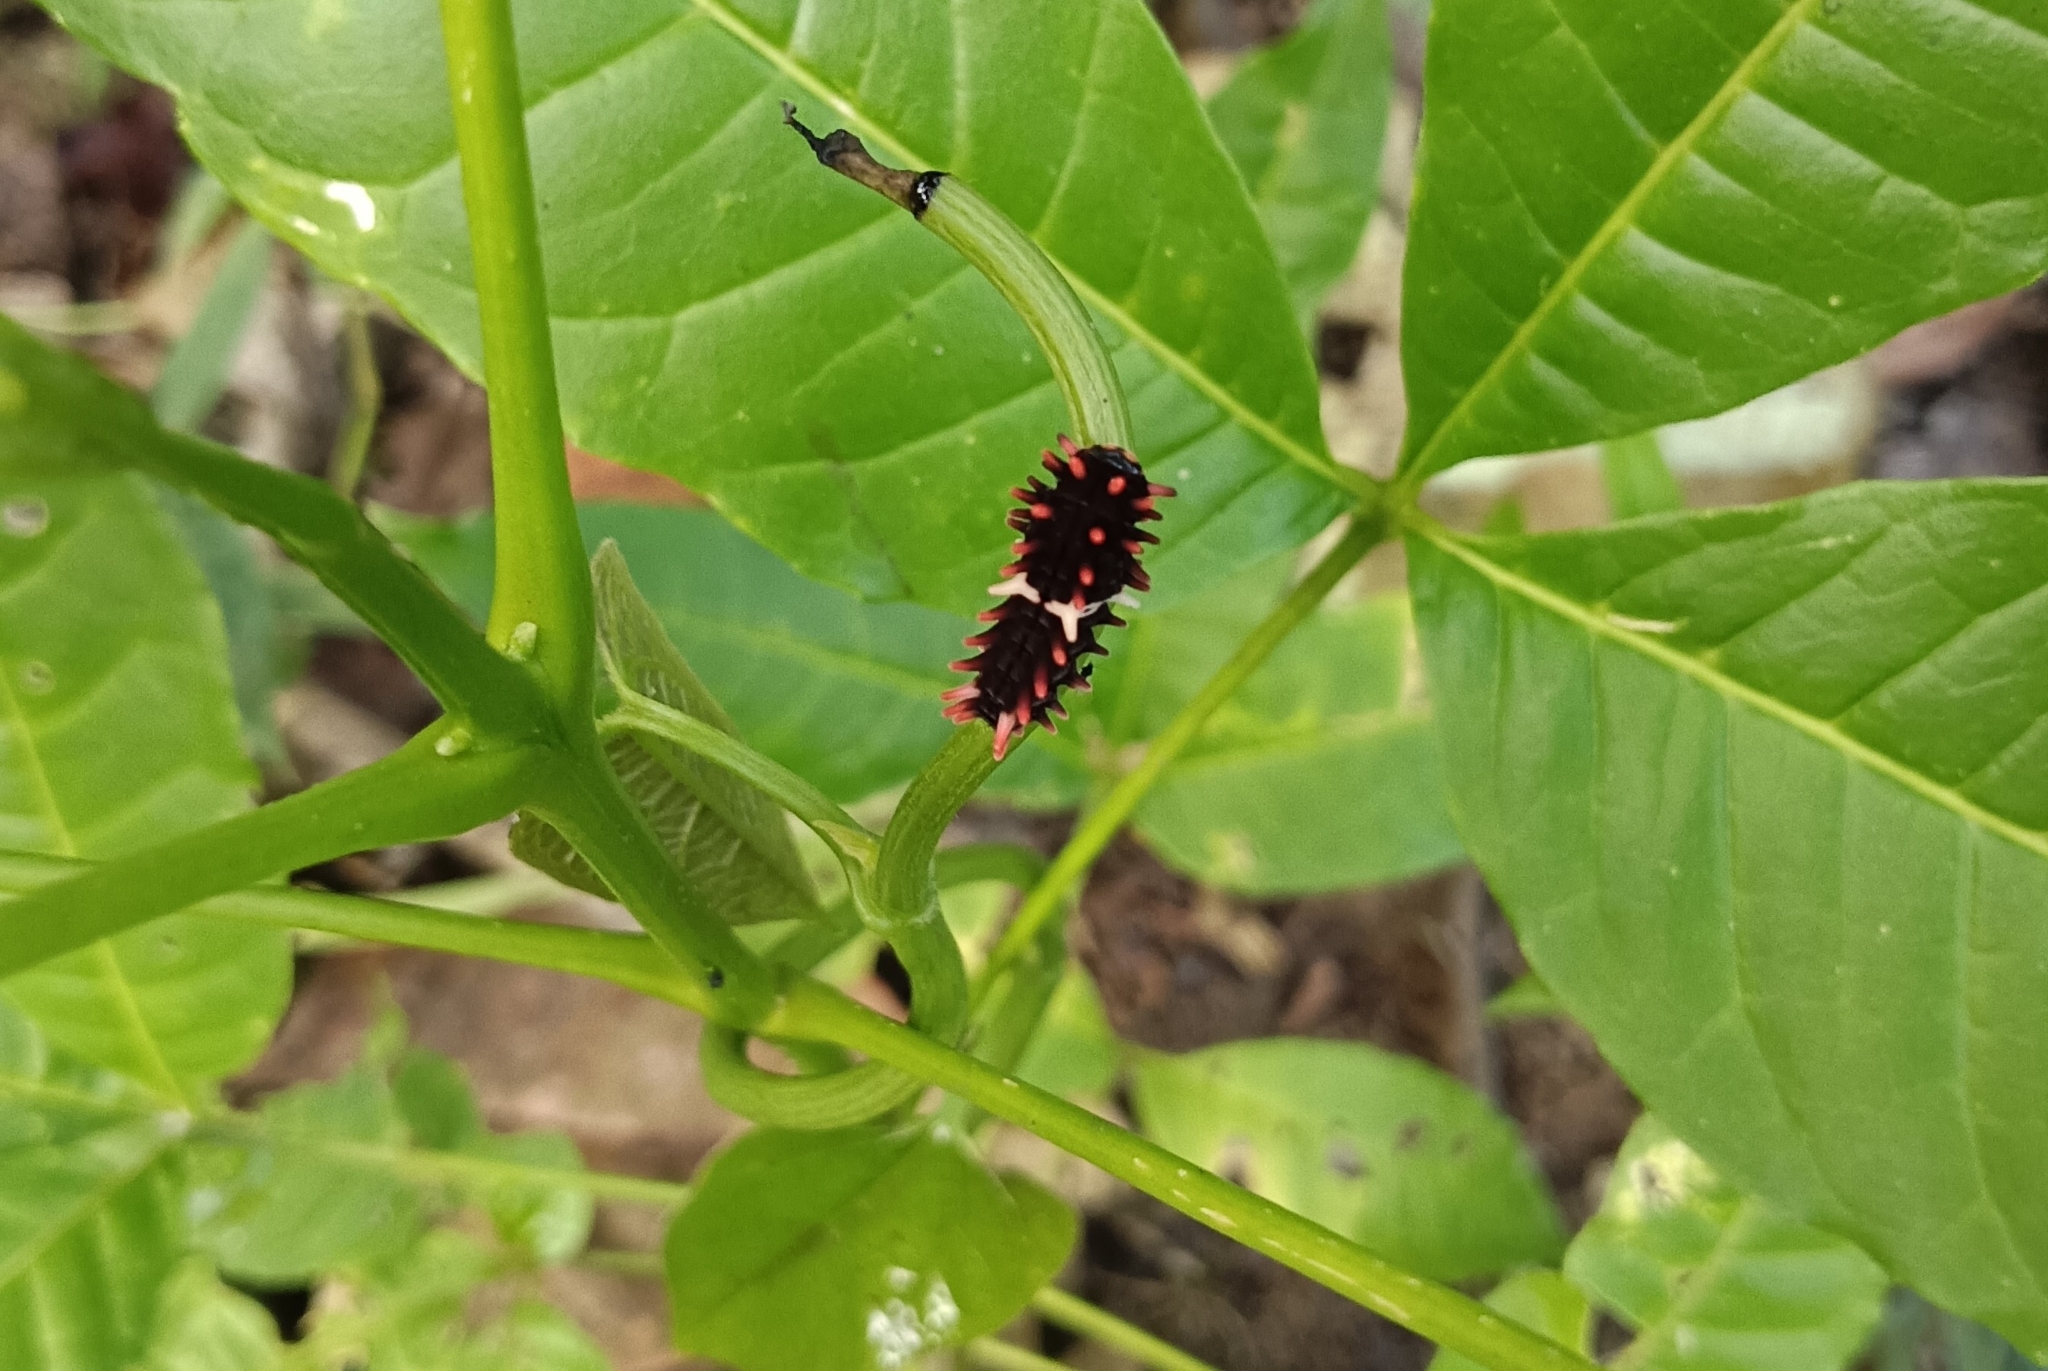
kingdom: Animalia
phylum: Arthropoda
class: Insecta
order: Lepidoptera
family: Papilionidae
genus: Pachliopta
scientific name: Pachliopta aristolochiae
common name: Common rose
